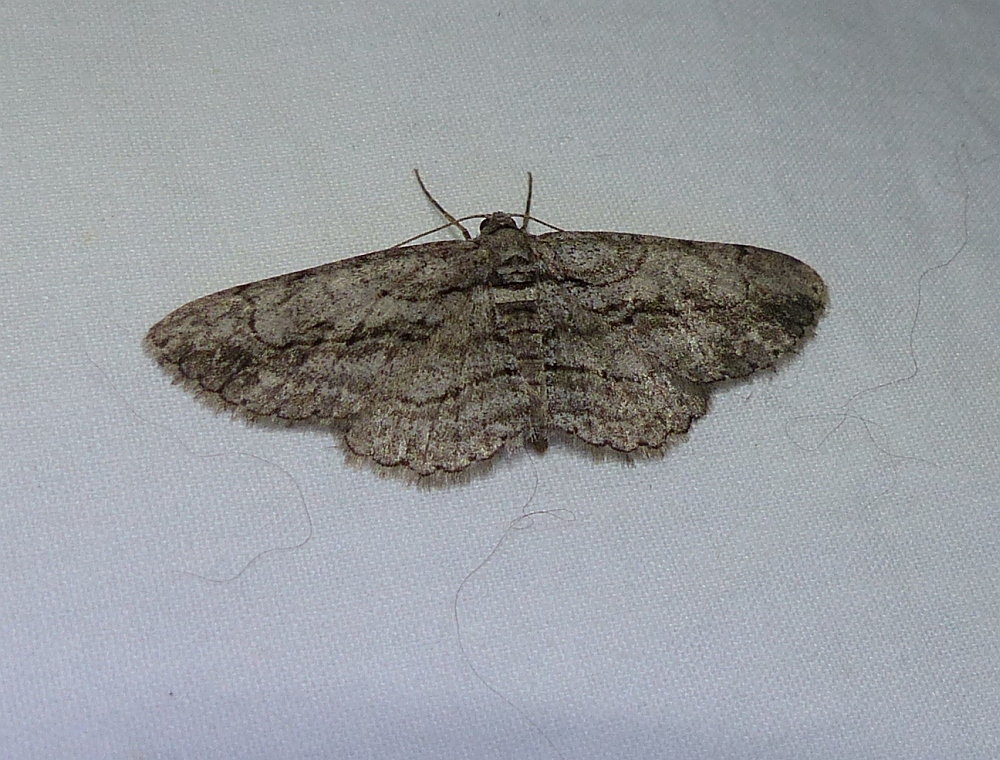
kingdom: Animalia
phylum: Arthropoda
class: Insecta
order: Lepidoptera
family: Geometridae
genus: Anavitrinella
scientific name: Anavitrinella pampinaria
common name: Common gray
